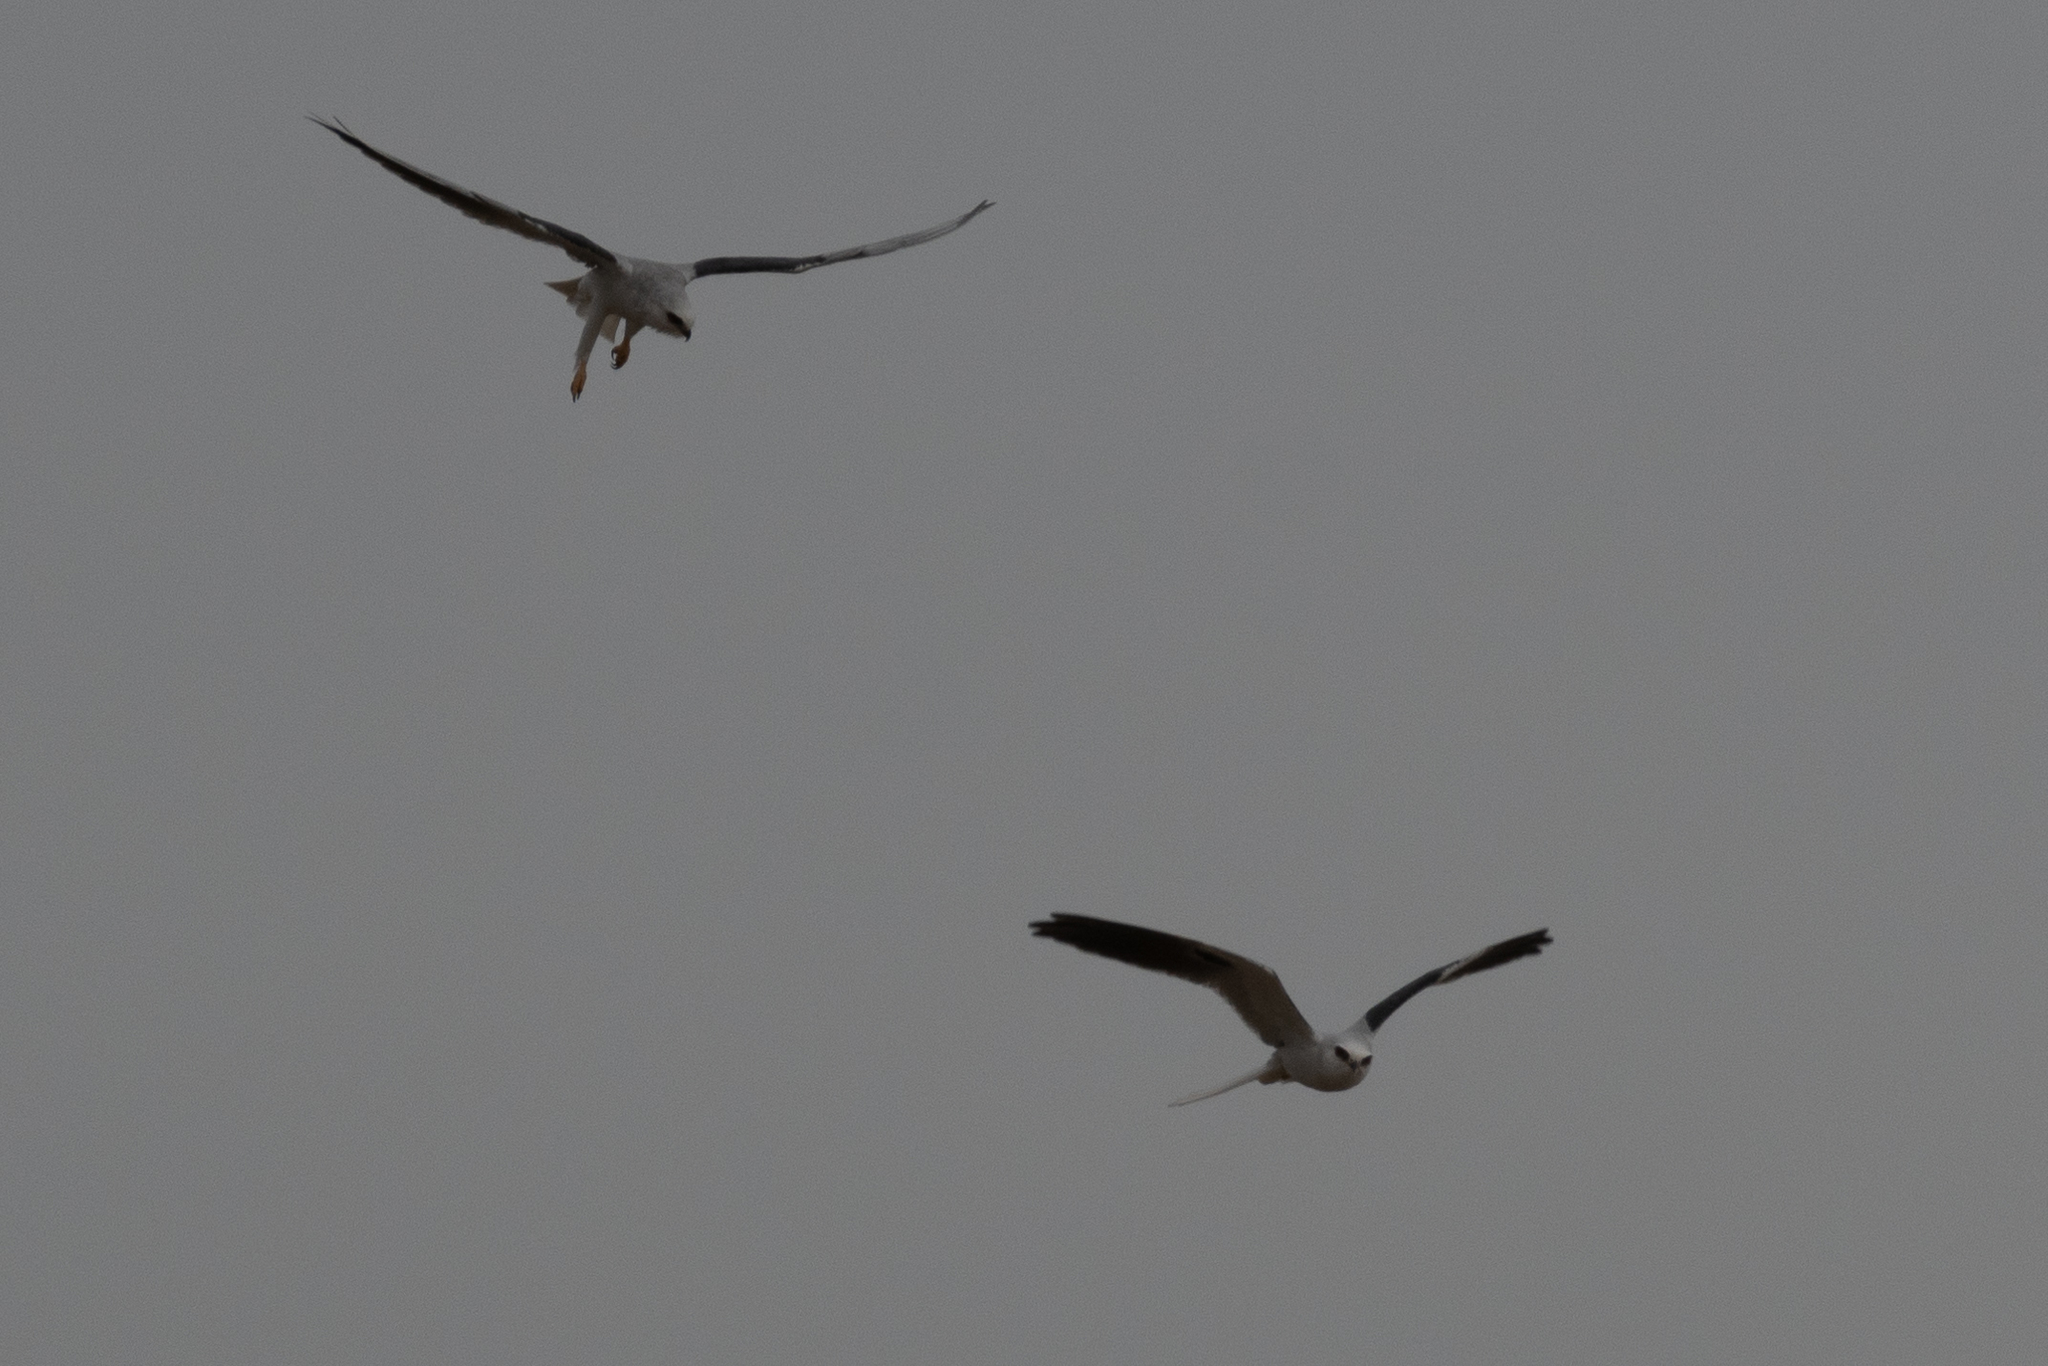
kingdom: Animalia
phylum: Chordata
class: Aves
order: Accipitriformes
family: Accipitridae
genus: Elanus
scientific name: Elanus leucurus
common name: White-tailed kite
